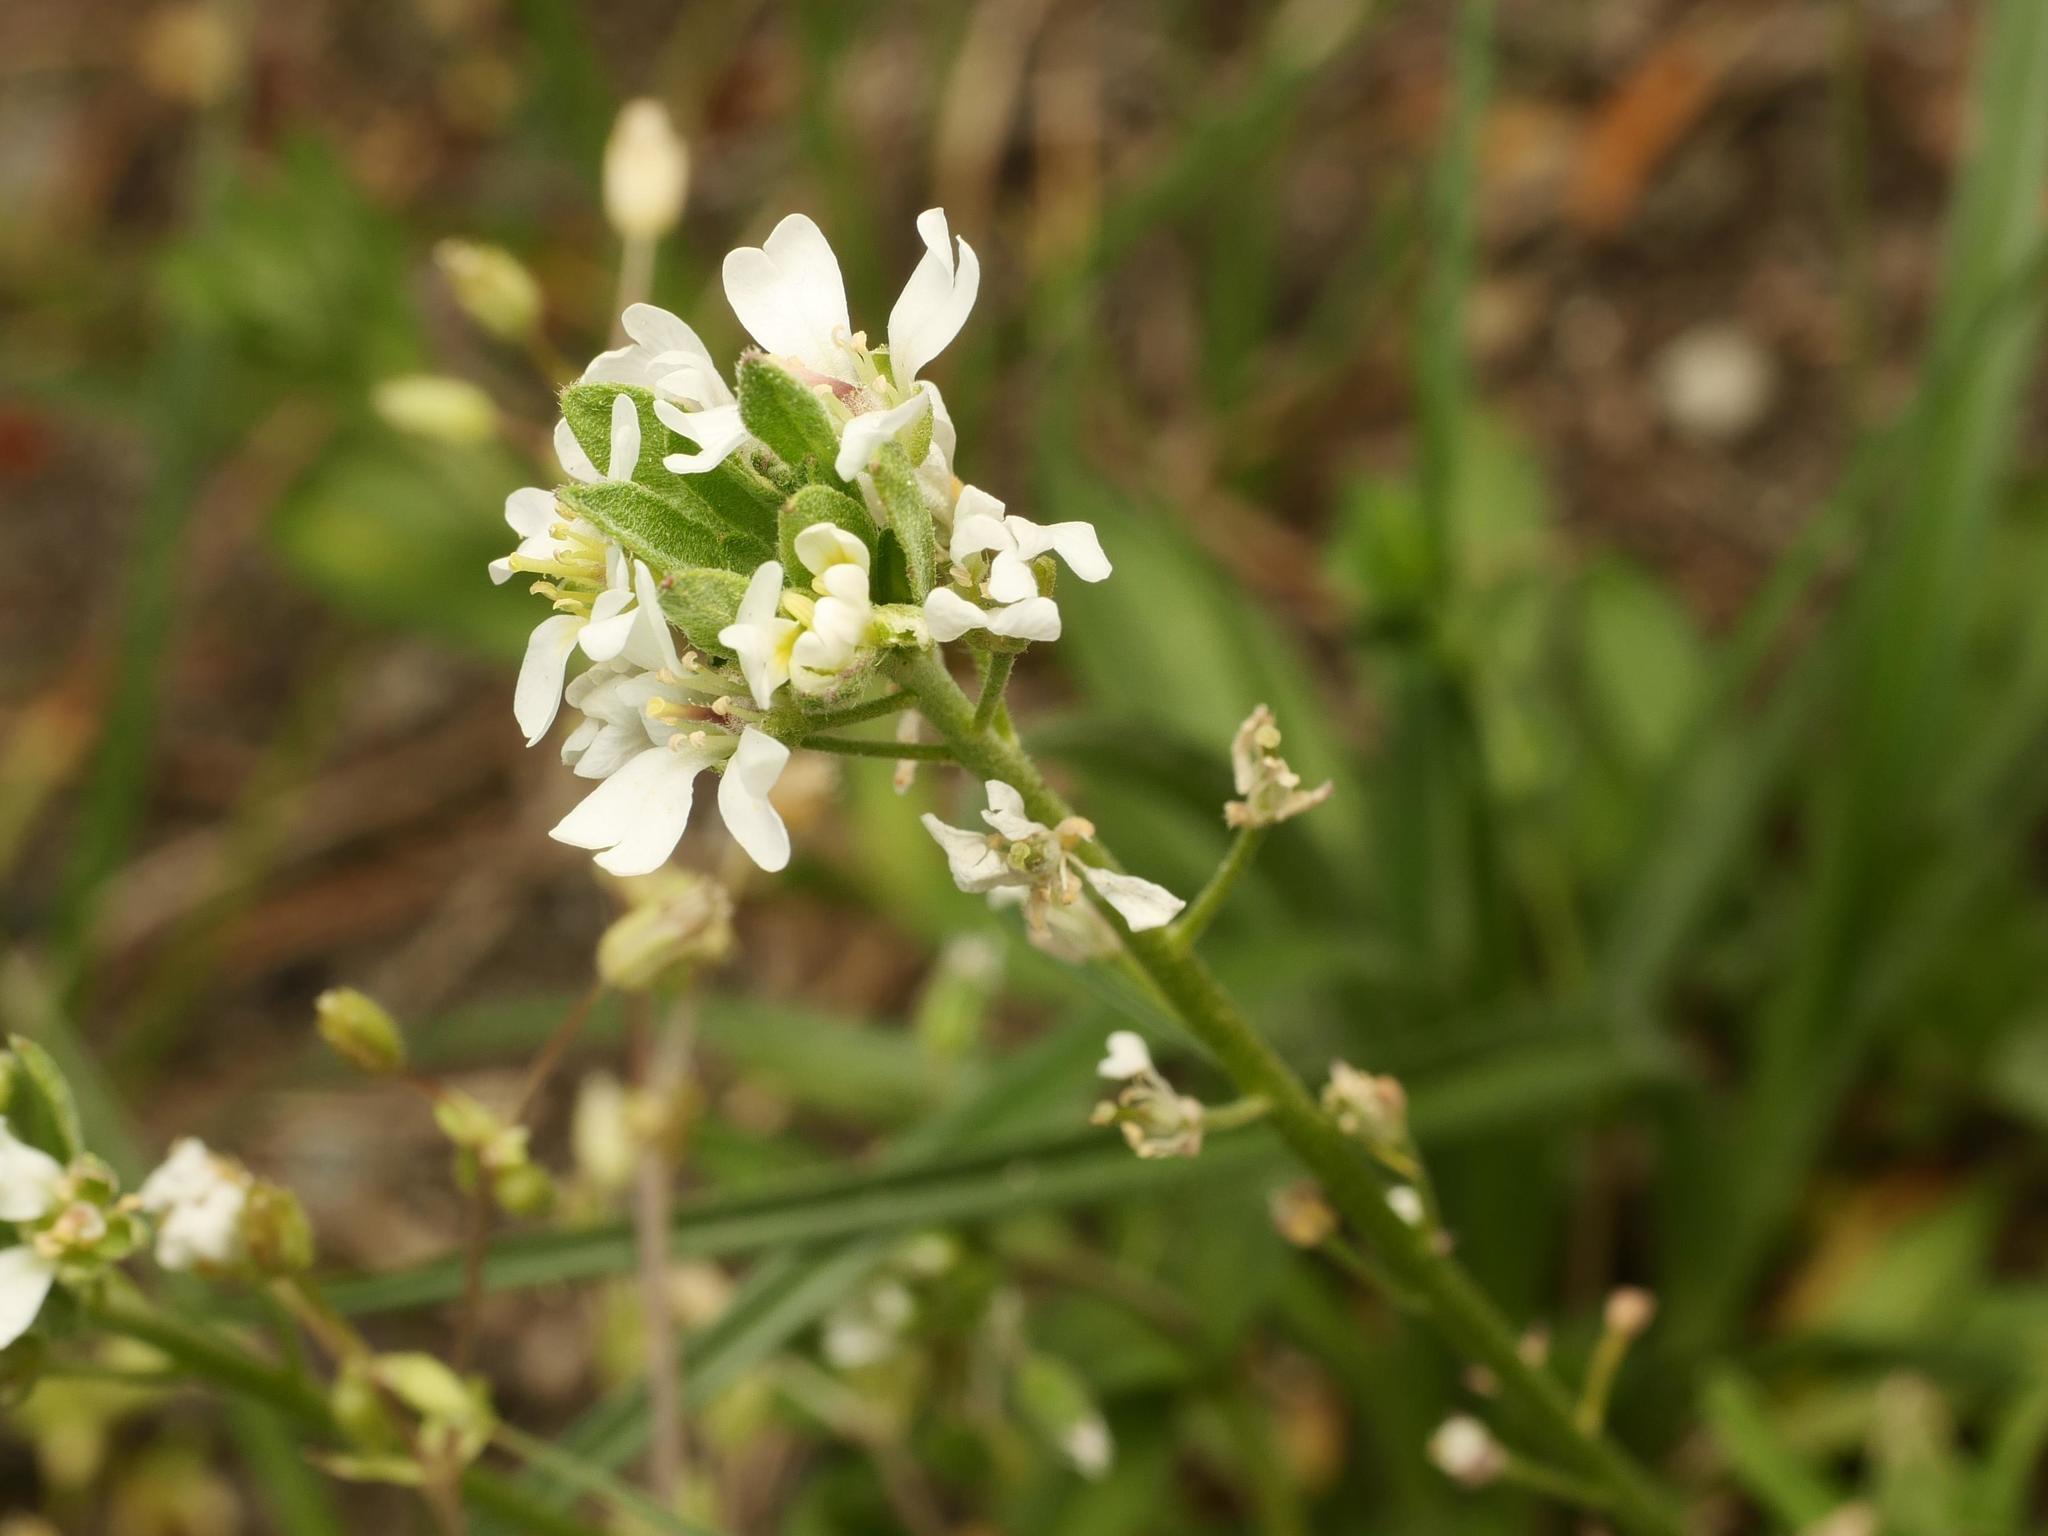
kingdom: Plantae
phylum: Tracheophyta
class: Magnoliopsida
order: Brassicales
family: Brassicaceae
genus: Berteroa
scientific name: Berteroa incana
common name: Hoary alison
